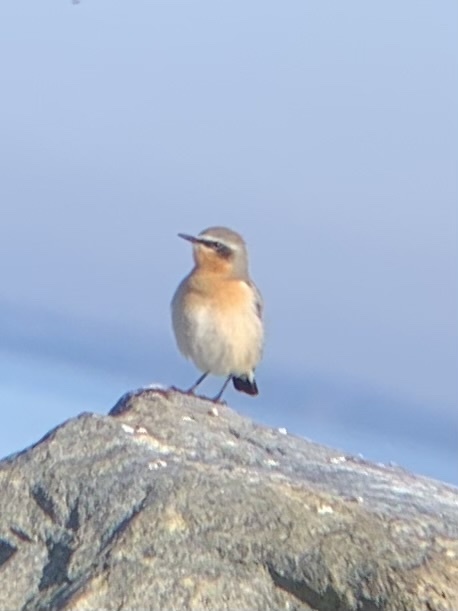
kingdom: Animalia
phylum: Chordata
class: Aves
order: Passeriformes
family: Muscicapidae
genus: Oenanthe
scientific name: Oenanthe oenanthe
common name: Northern wheatear
